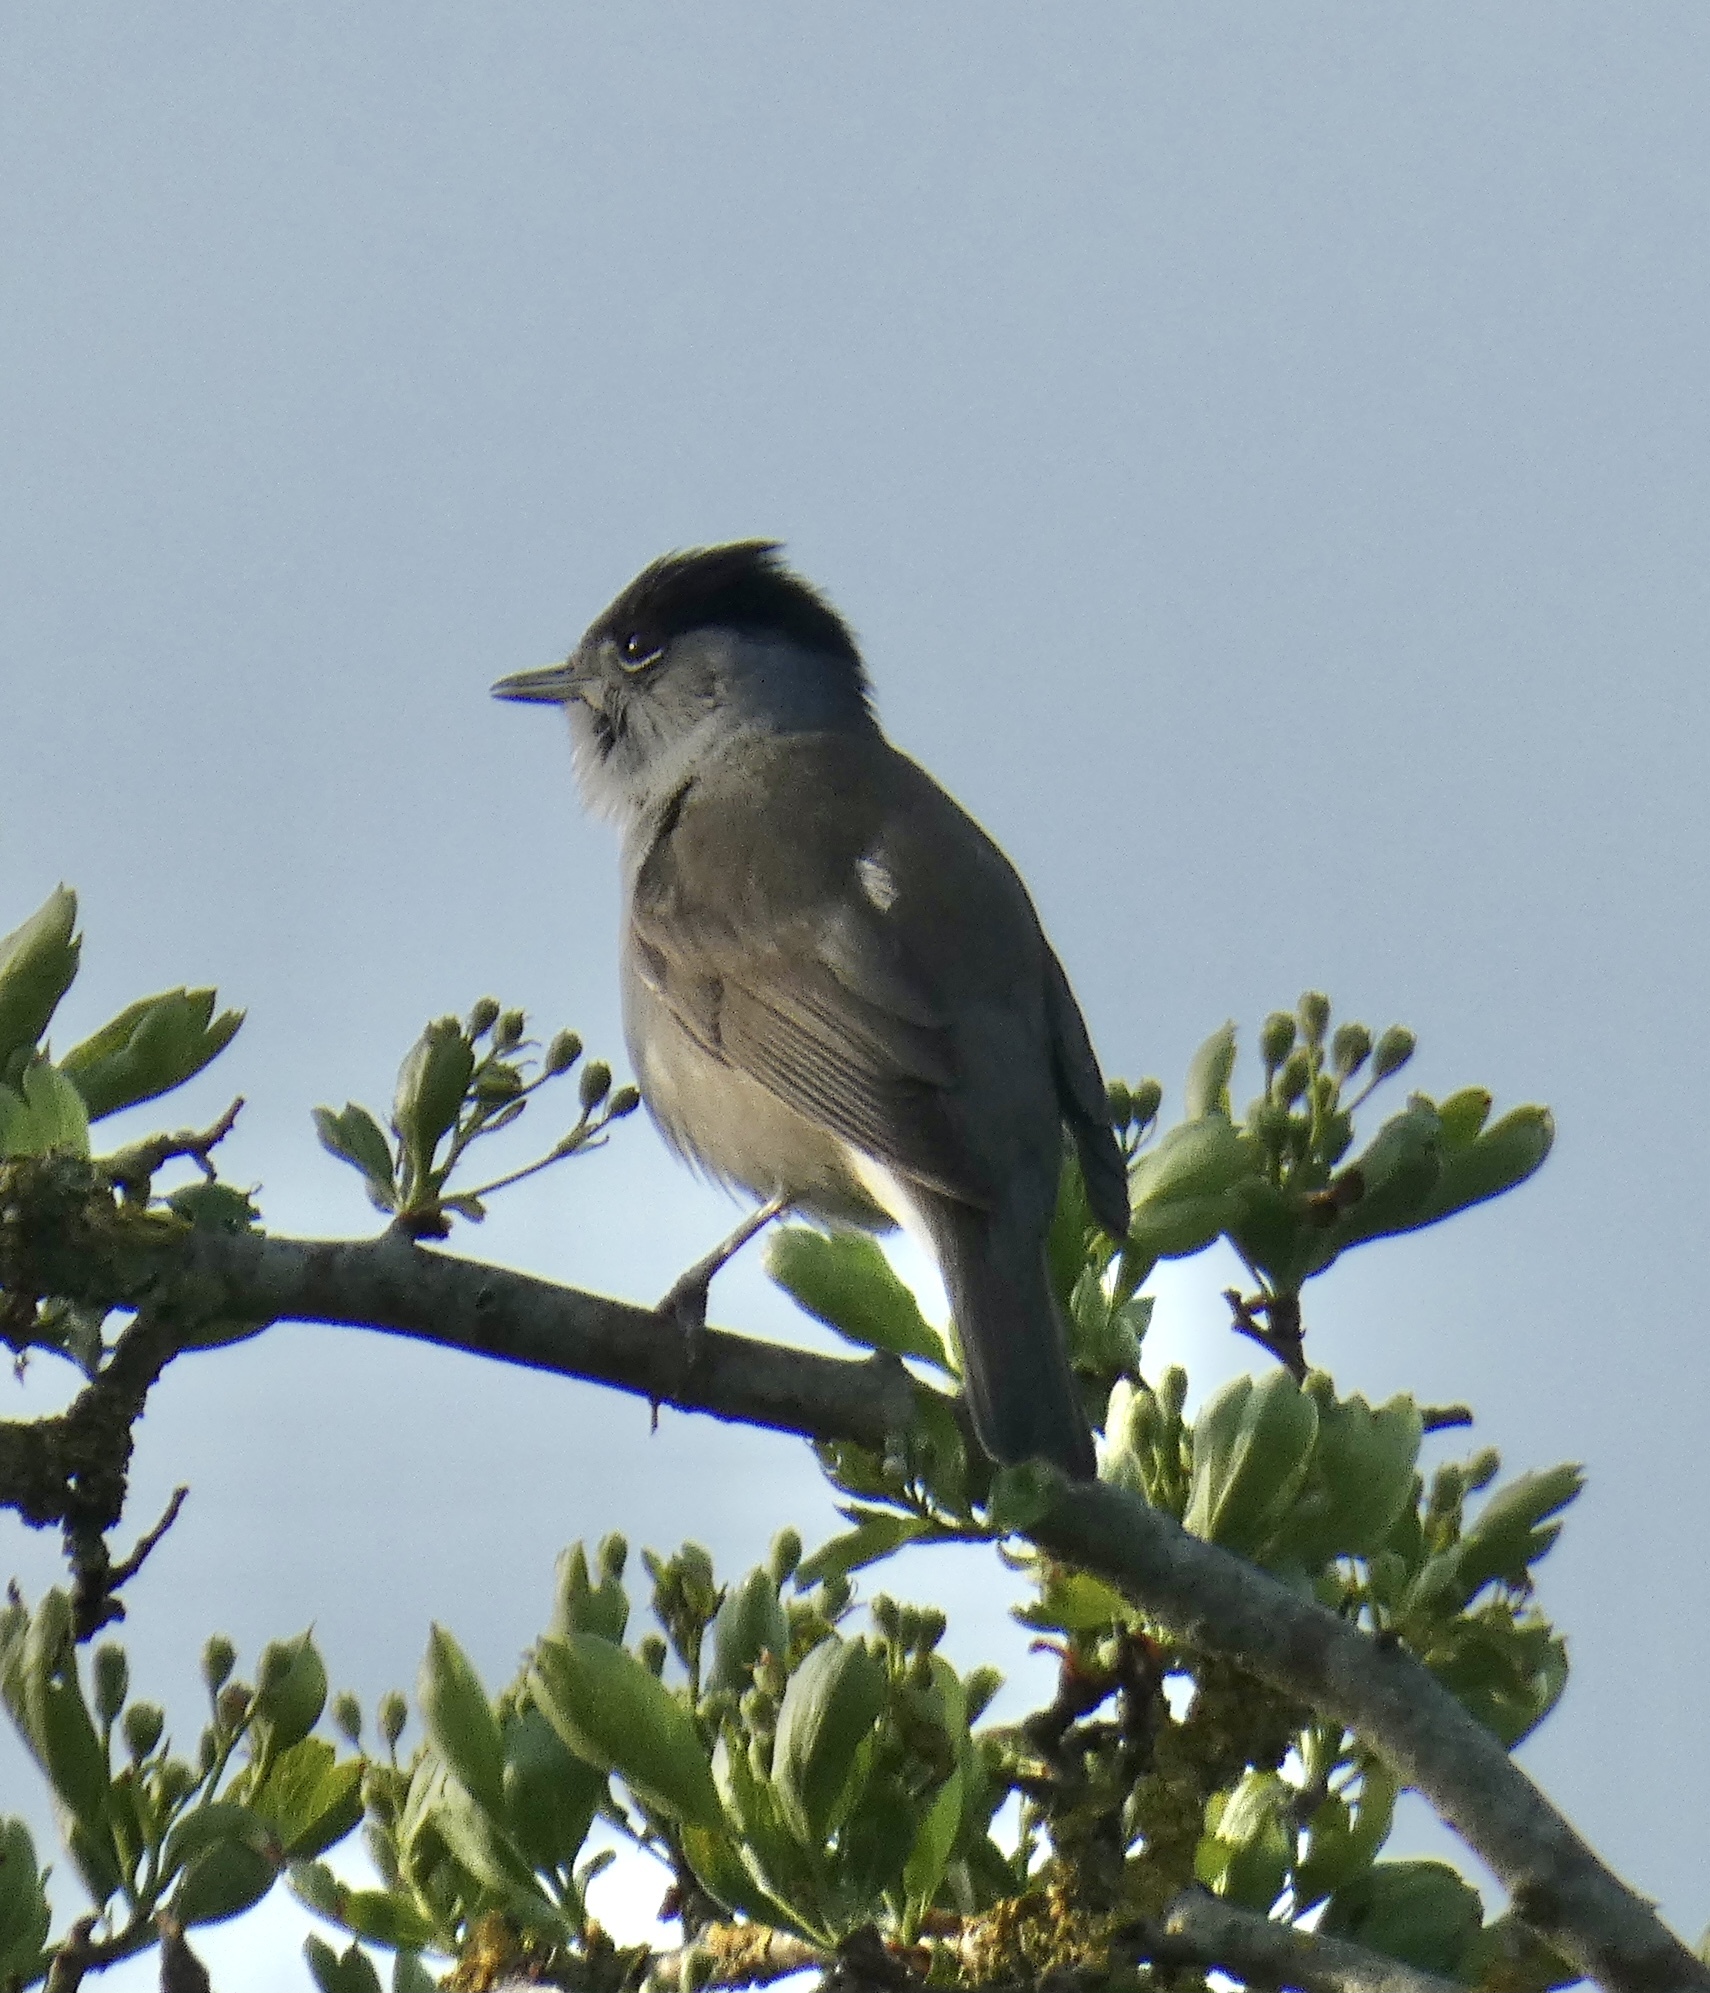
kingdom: Animalia
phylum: Chordata
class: Aves
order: Passeriformes
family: Sylviidae
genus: Sylvia
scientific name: Sylvia atricapilla
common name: Eurasian blackcap
